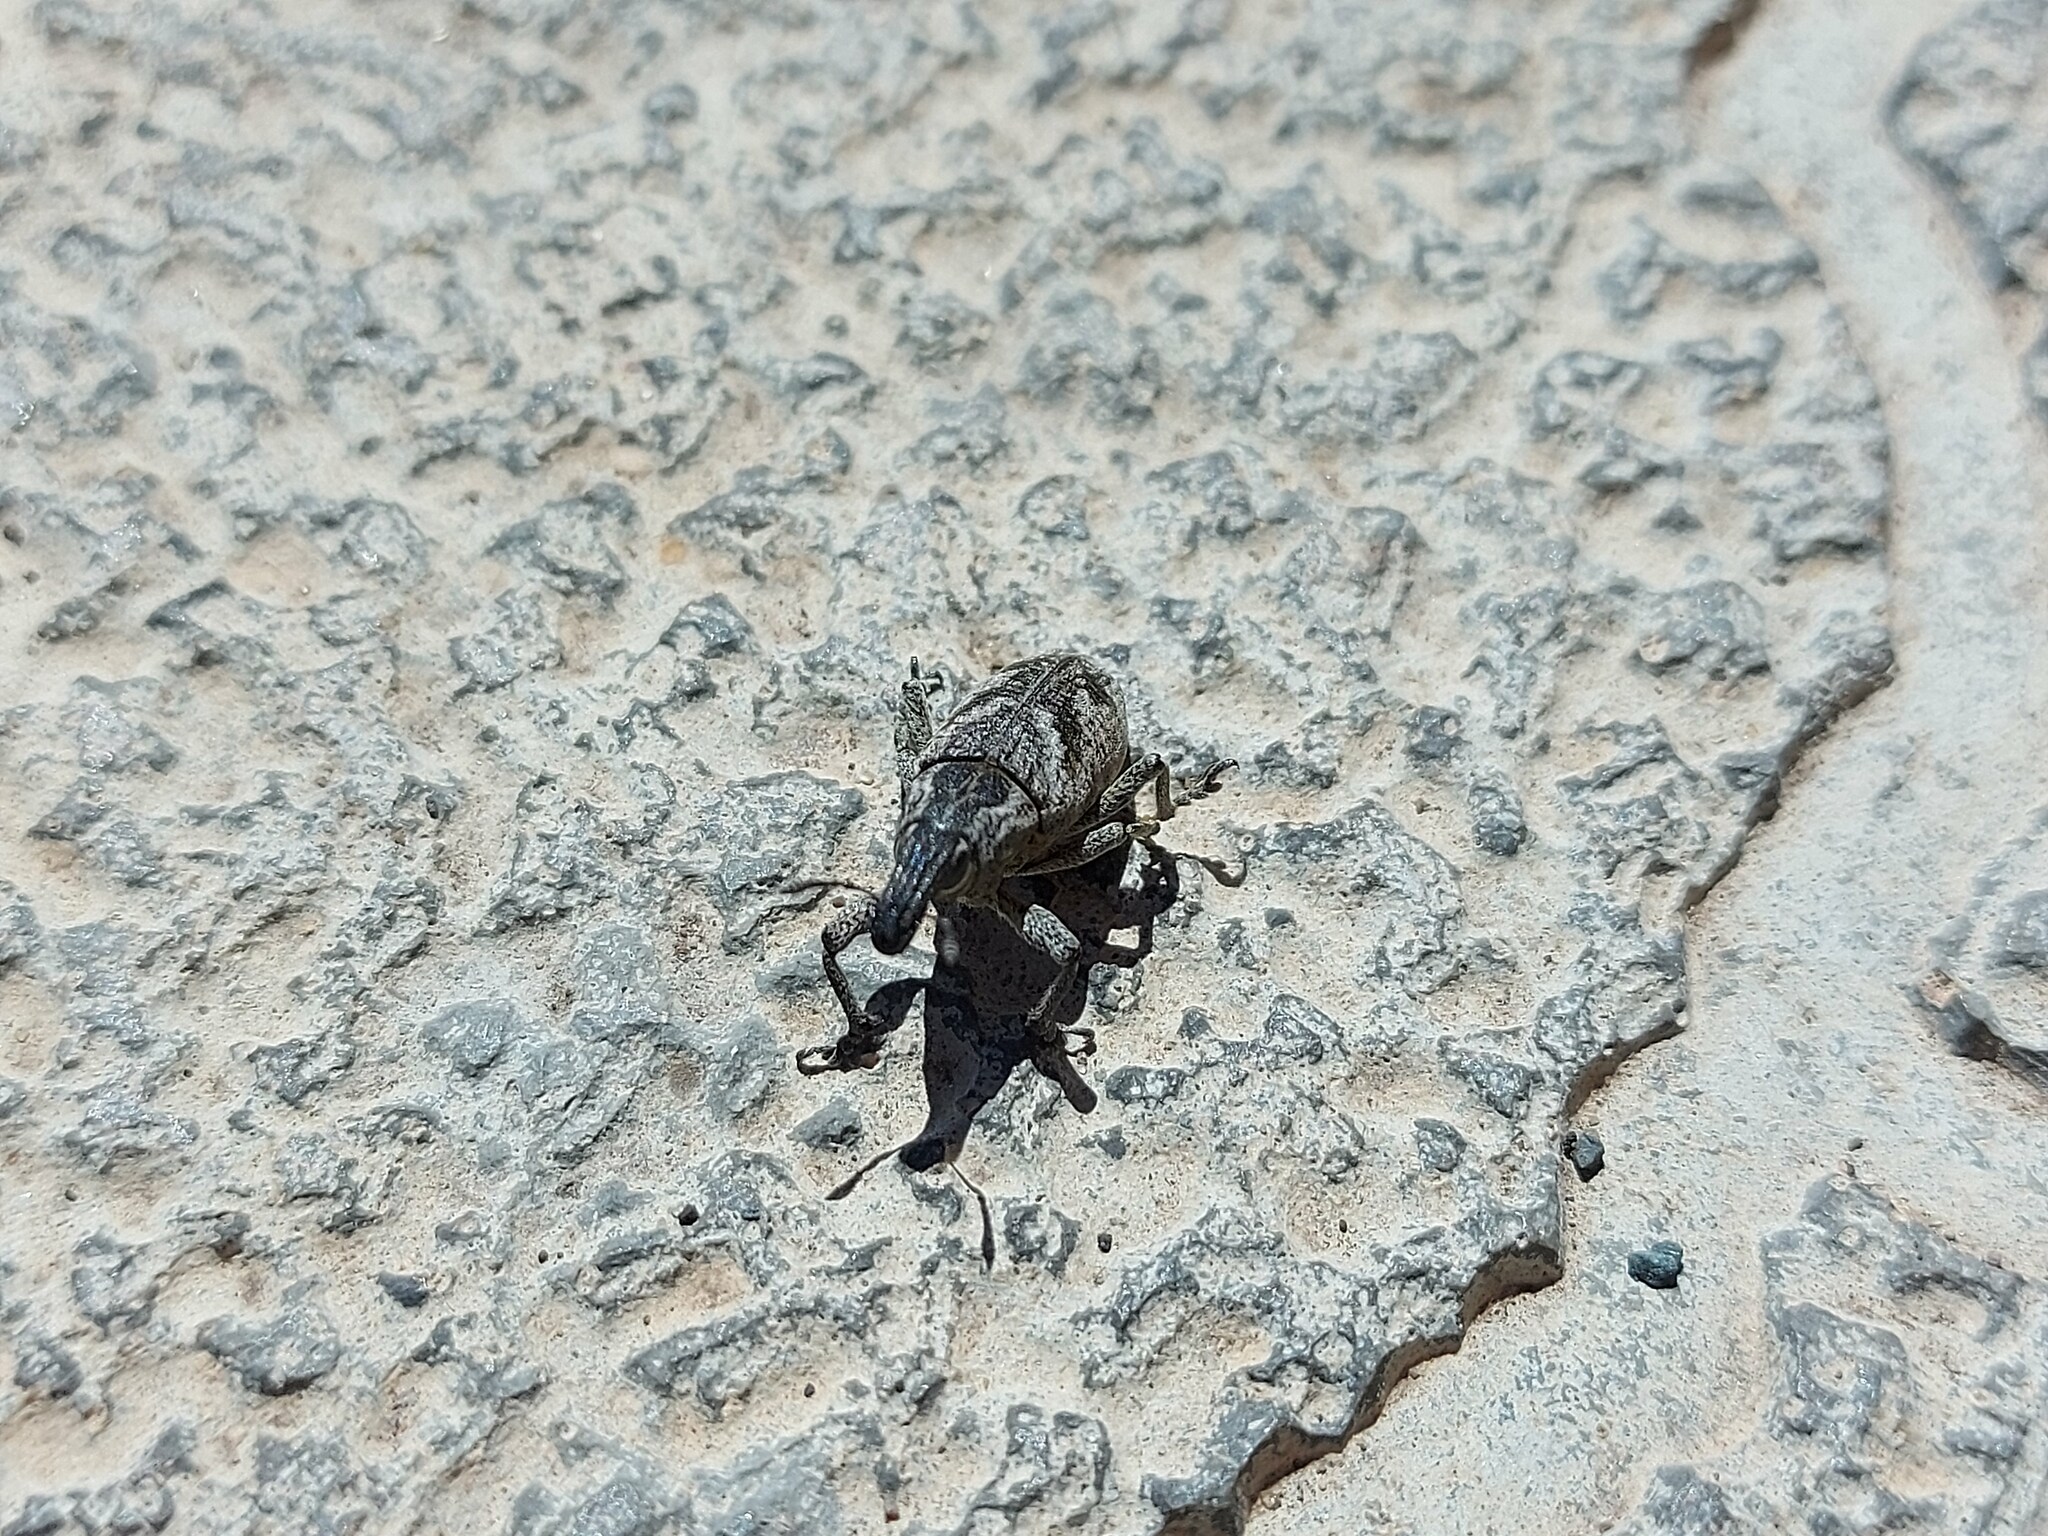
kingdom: Animalia
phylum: Arthropoda
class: Insecta
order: Coleoptera
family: Curculionidae
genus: Cleonis
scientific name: Cleonis pigra
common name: Large thistle weevil
